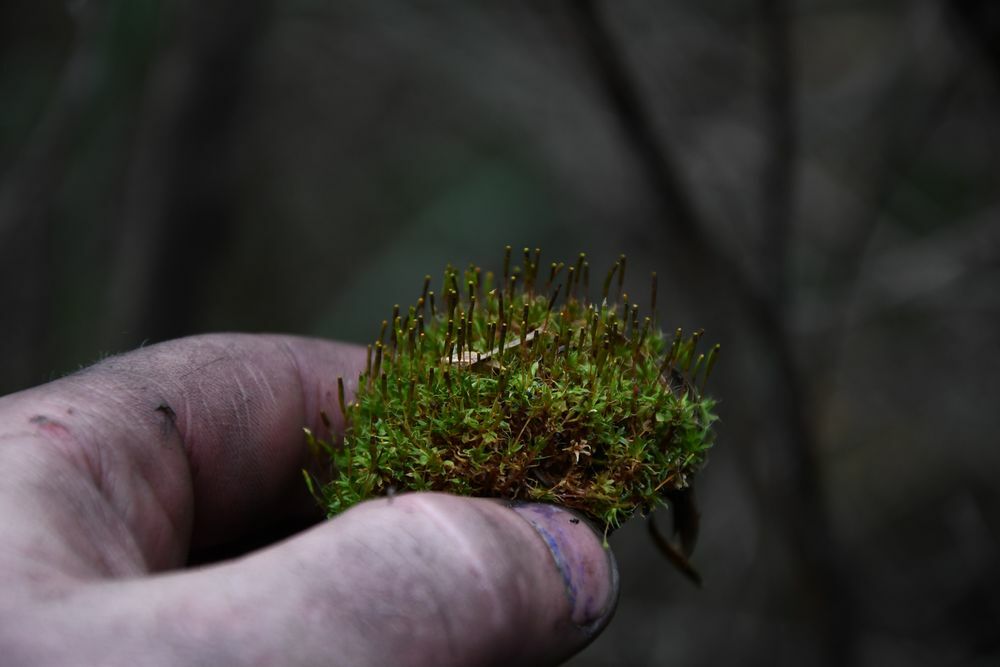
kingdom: Plantae
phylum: Bryophyta
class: Bryopsida
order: Splachnales
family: Splachnaceae
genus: Tayloria
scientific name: Tayloria octoblephara
